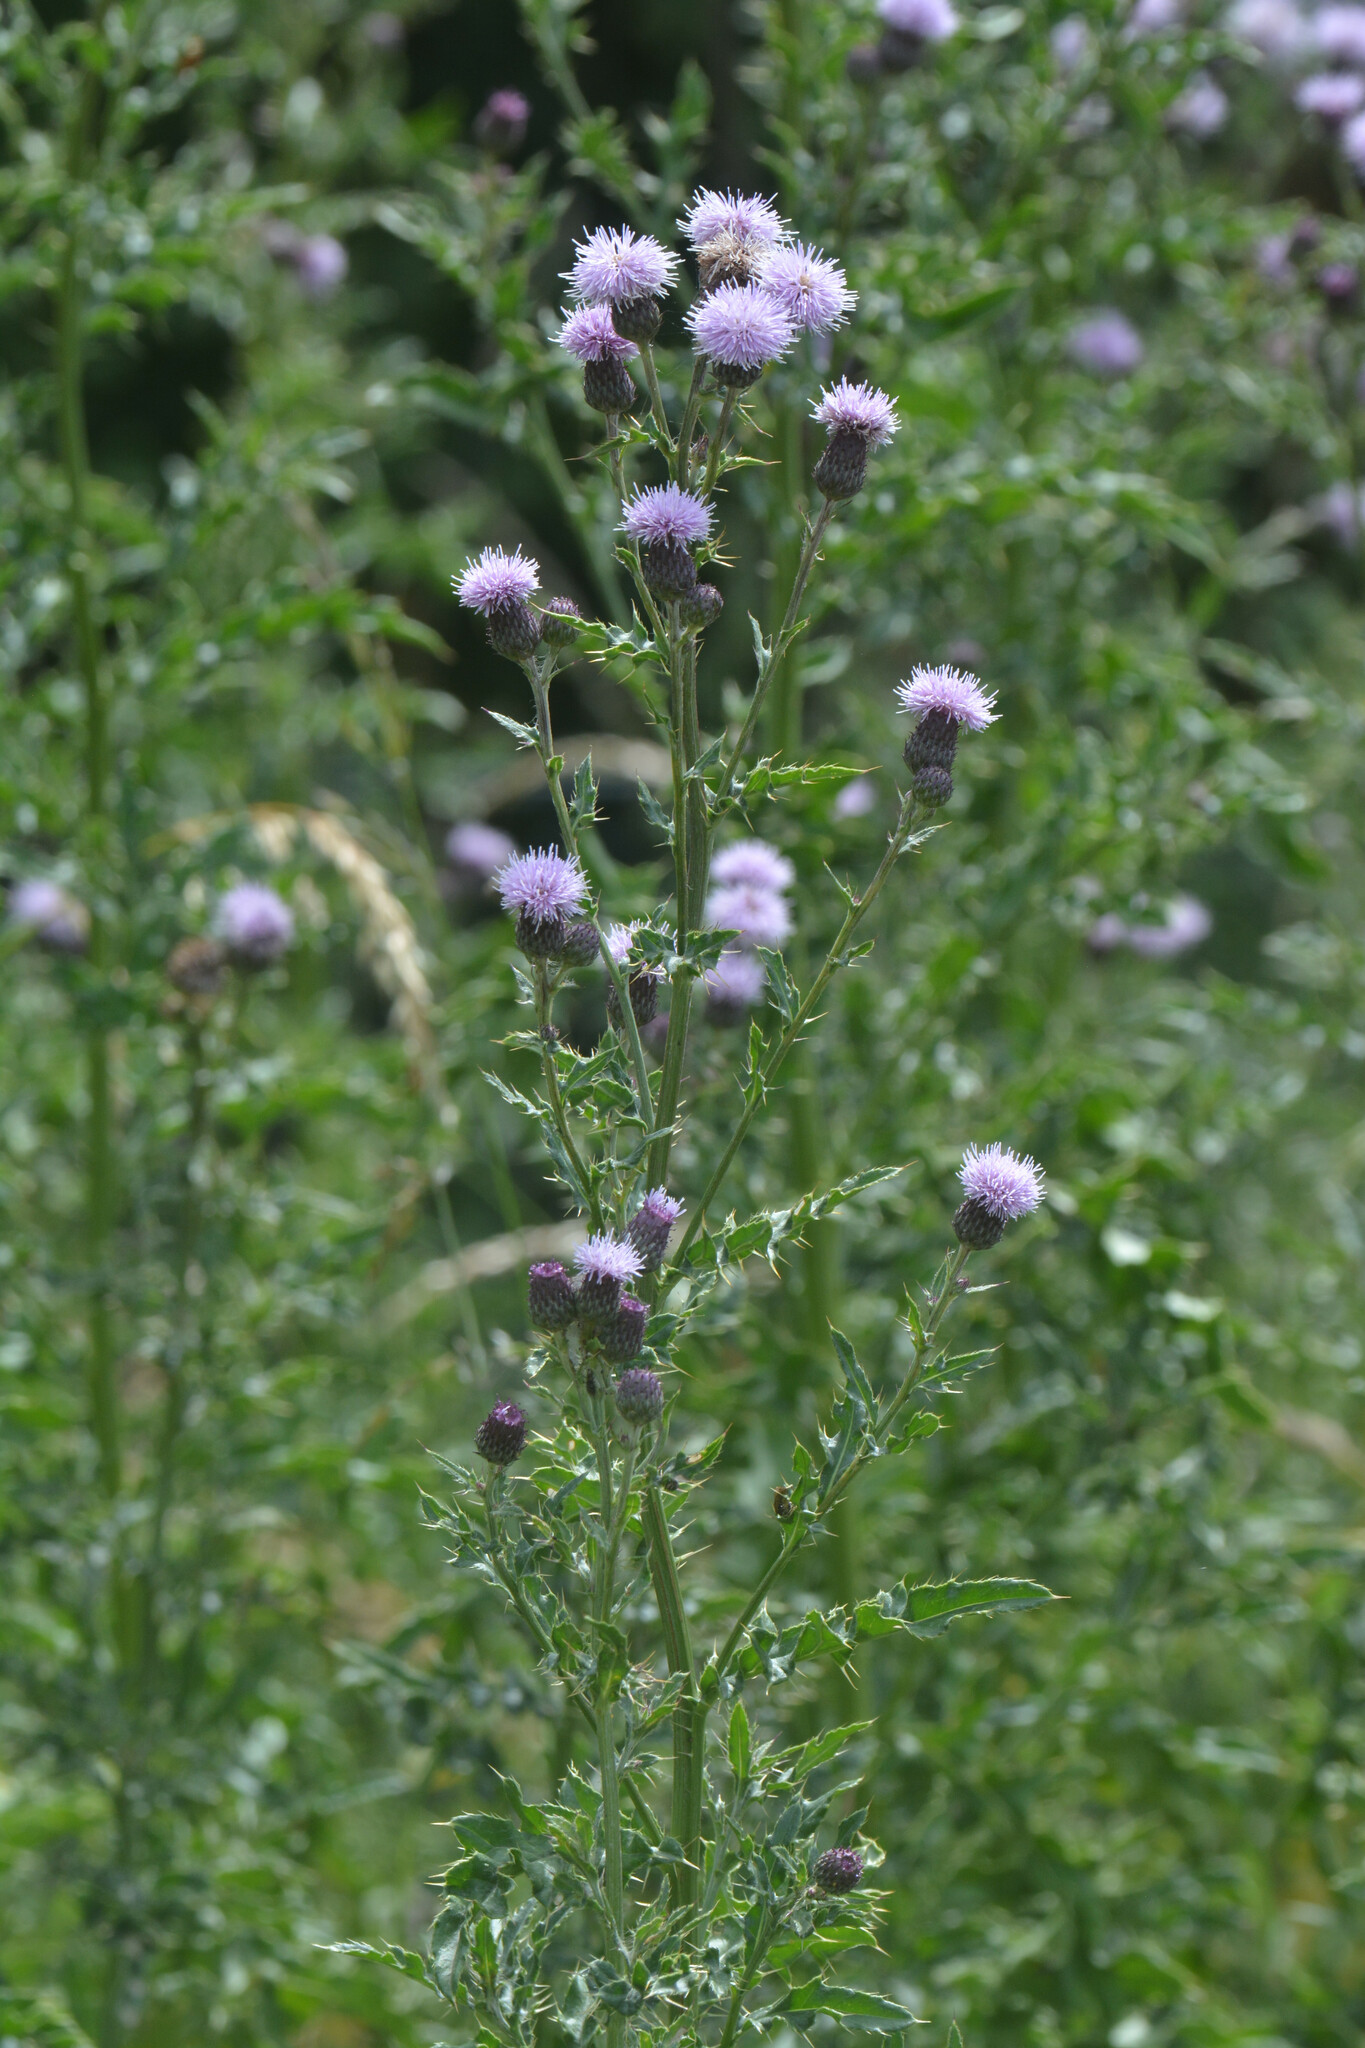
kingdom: Plantae
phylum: Tracheophyta
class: Magnoliopsida
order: Asterales
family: Asteraceae
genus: Cirsium
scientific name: Cirsium arvense
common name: Creeping thistle
